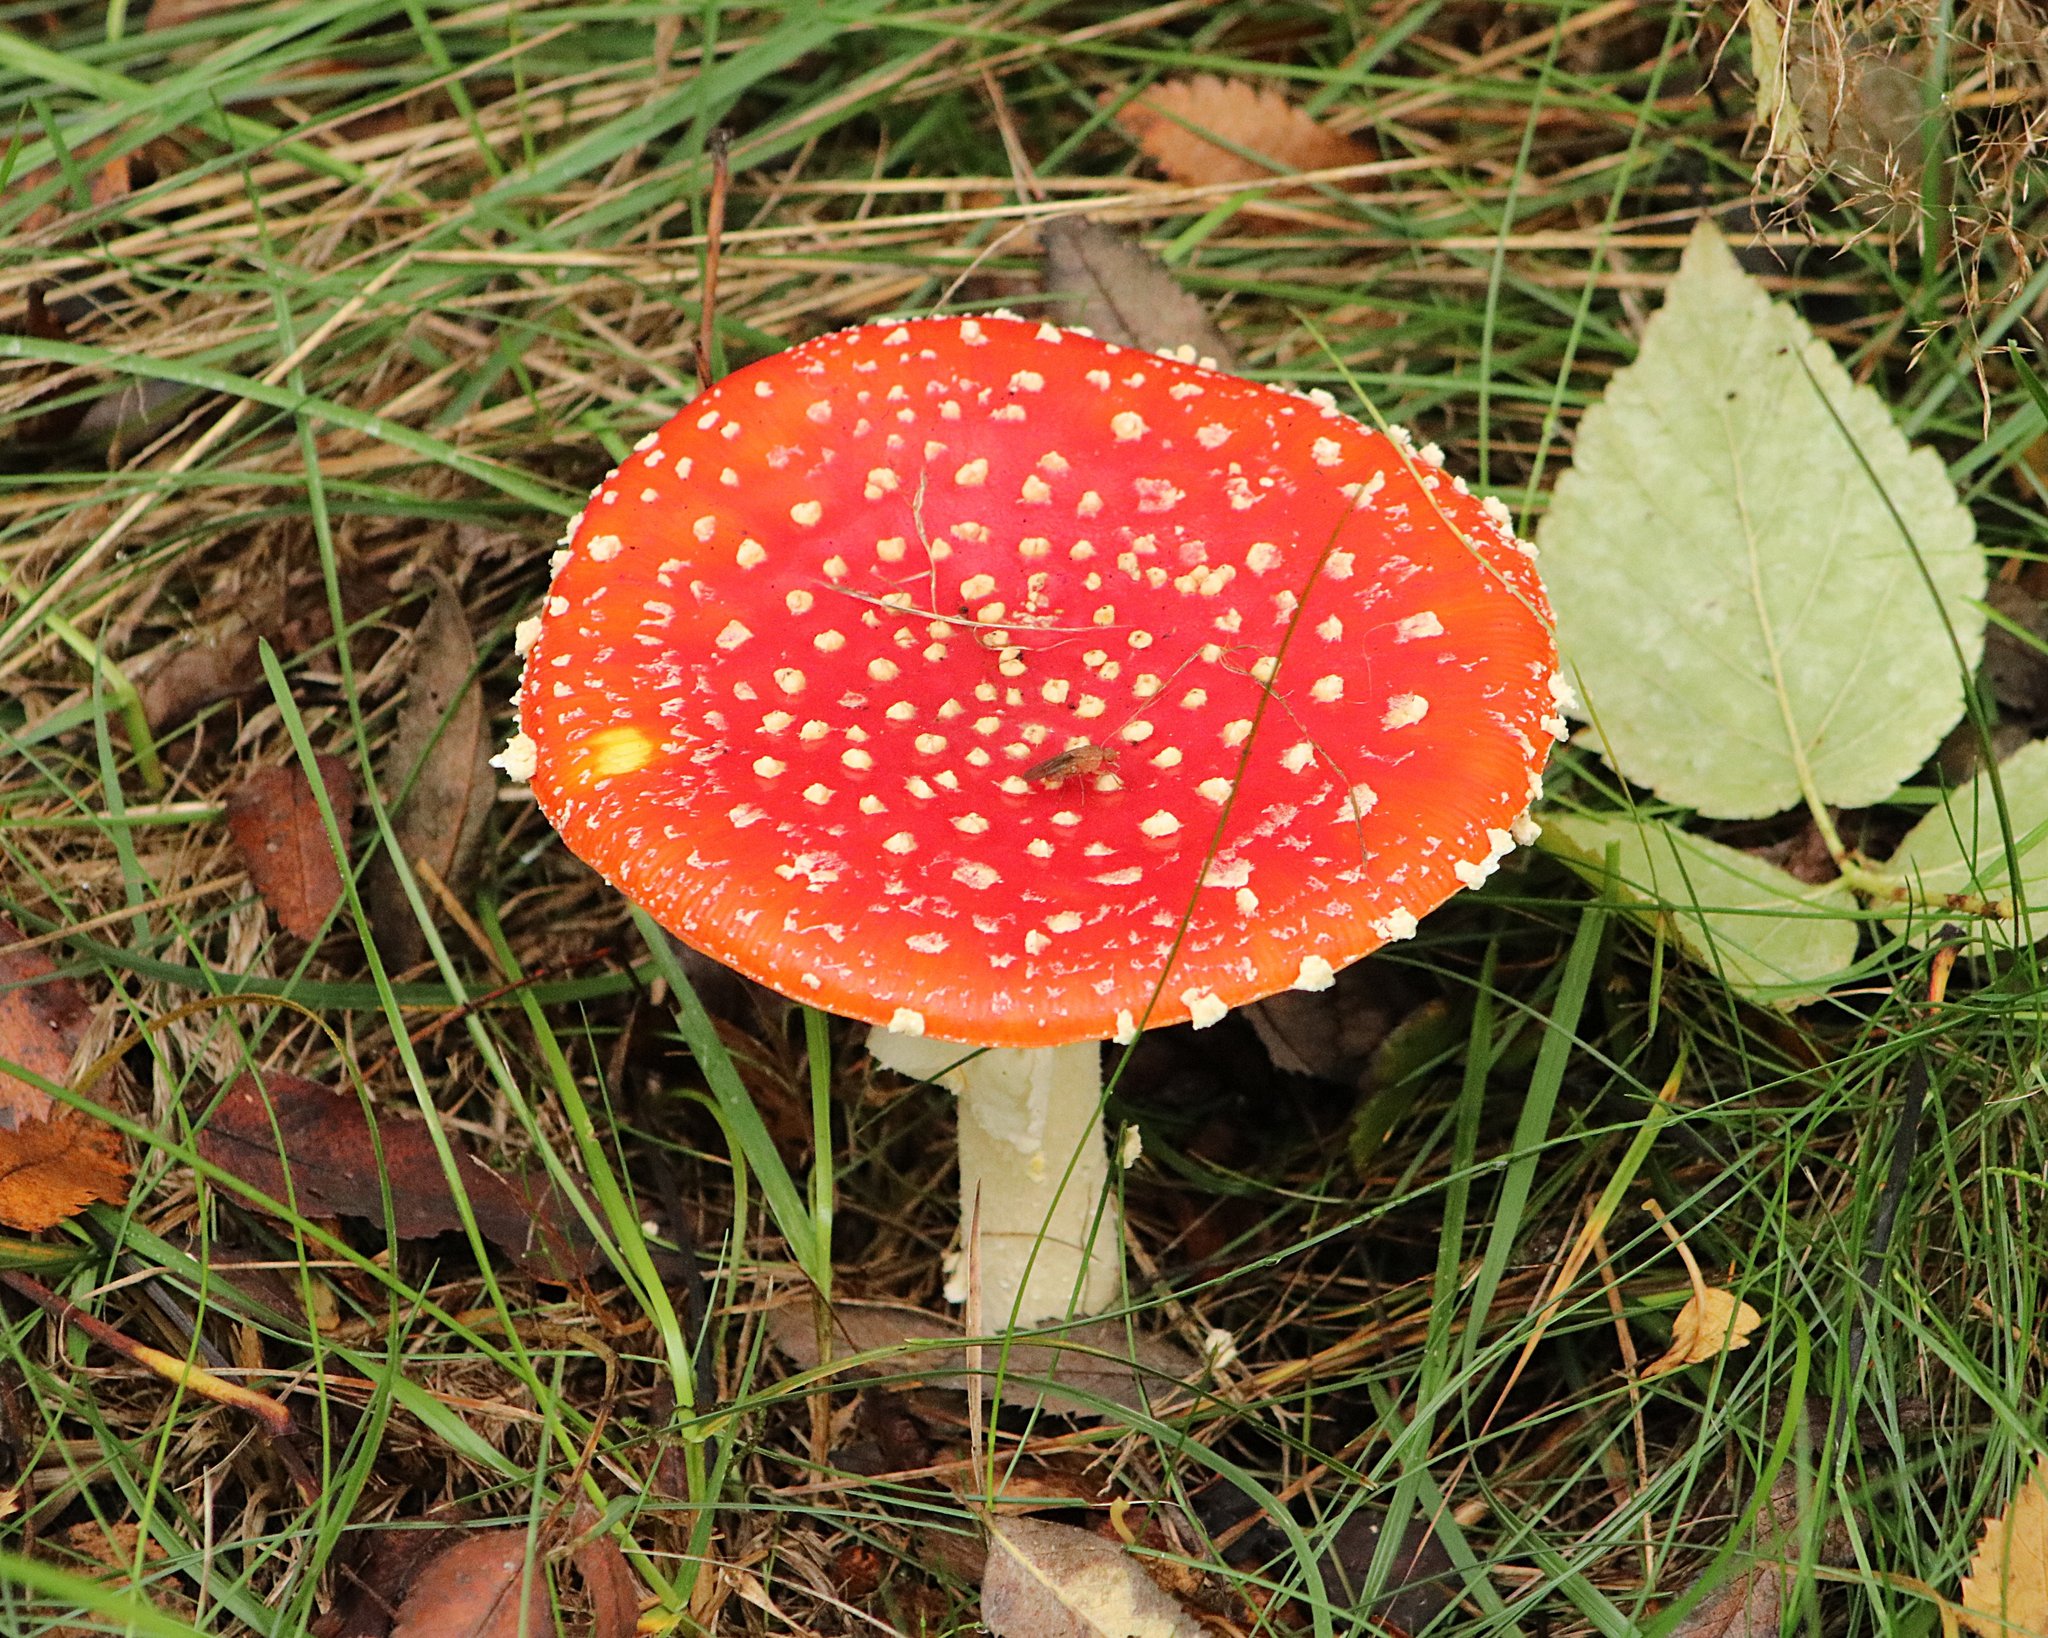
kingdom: Fungi
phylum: Basidiomycota
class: Agaricomycetes
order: Agaricales
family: Amanitaceae
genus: Amanita
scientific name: Amanita muscaria
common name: Fly agaric
